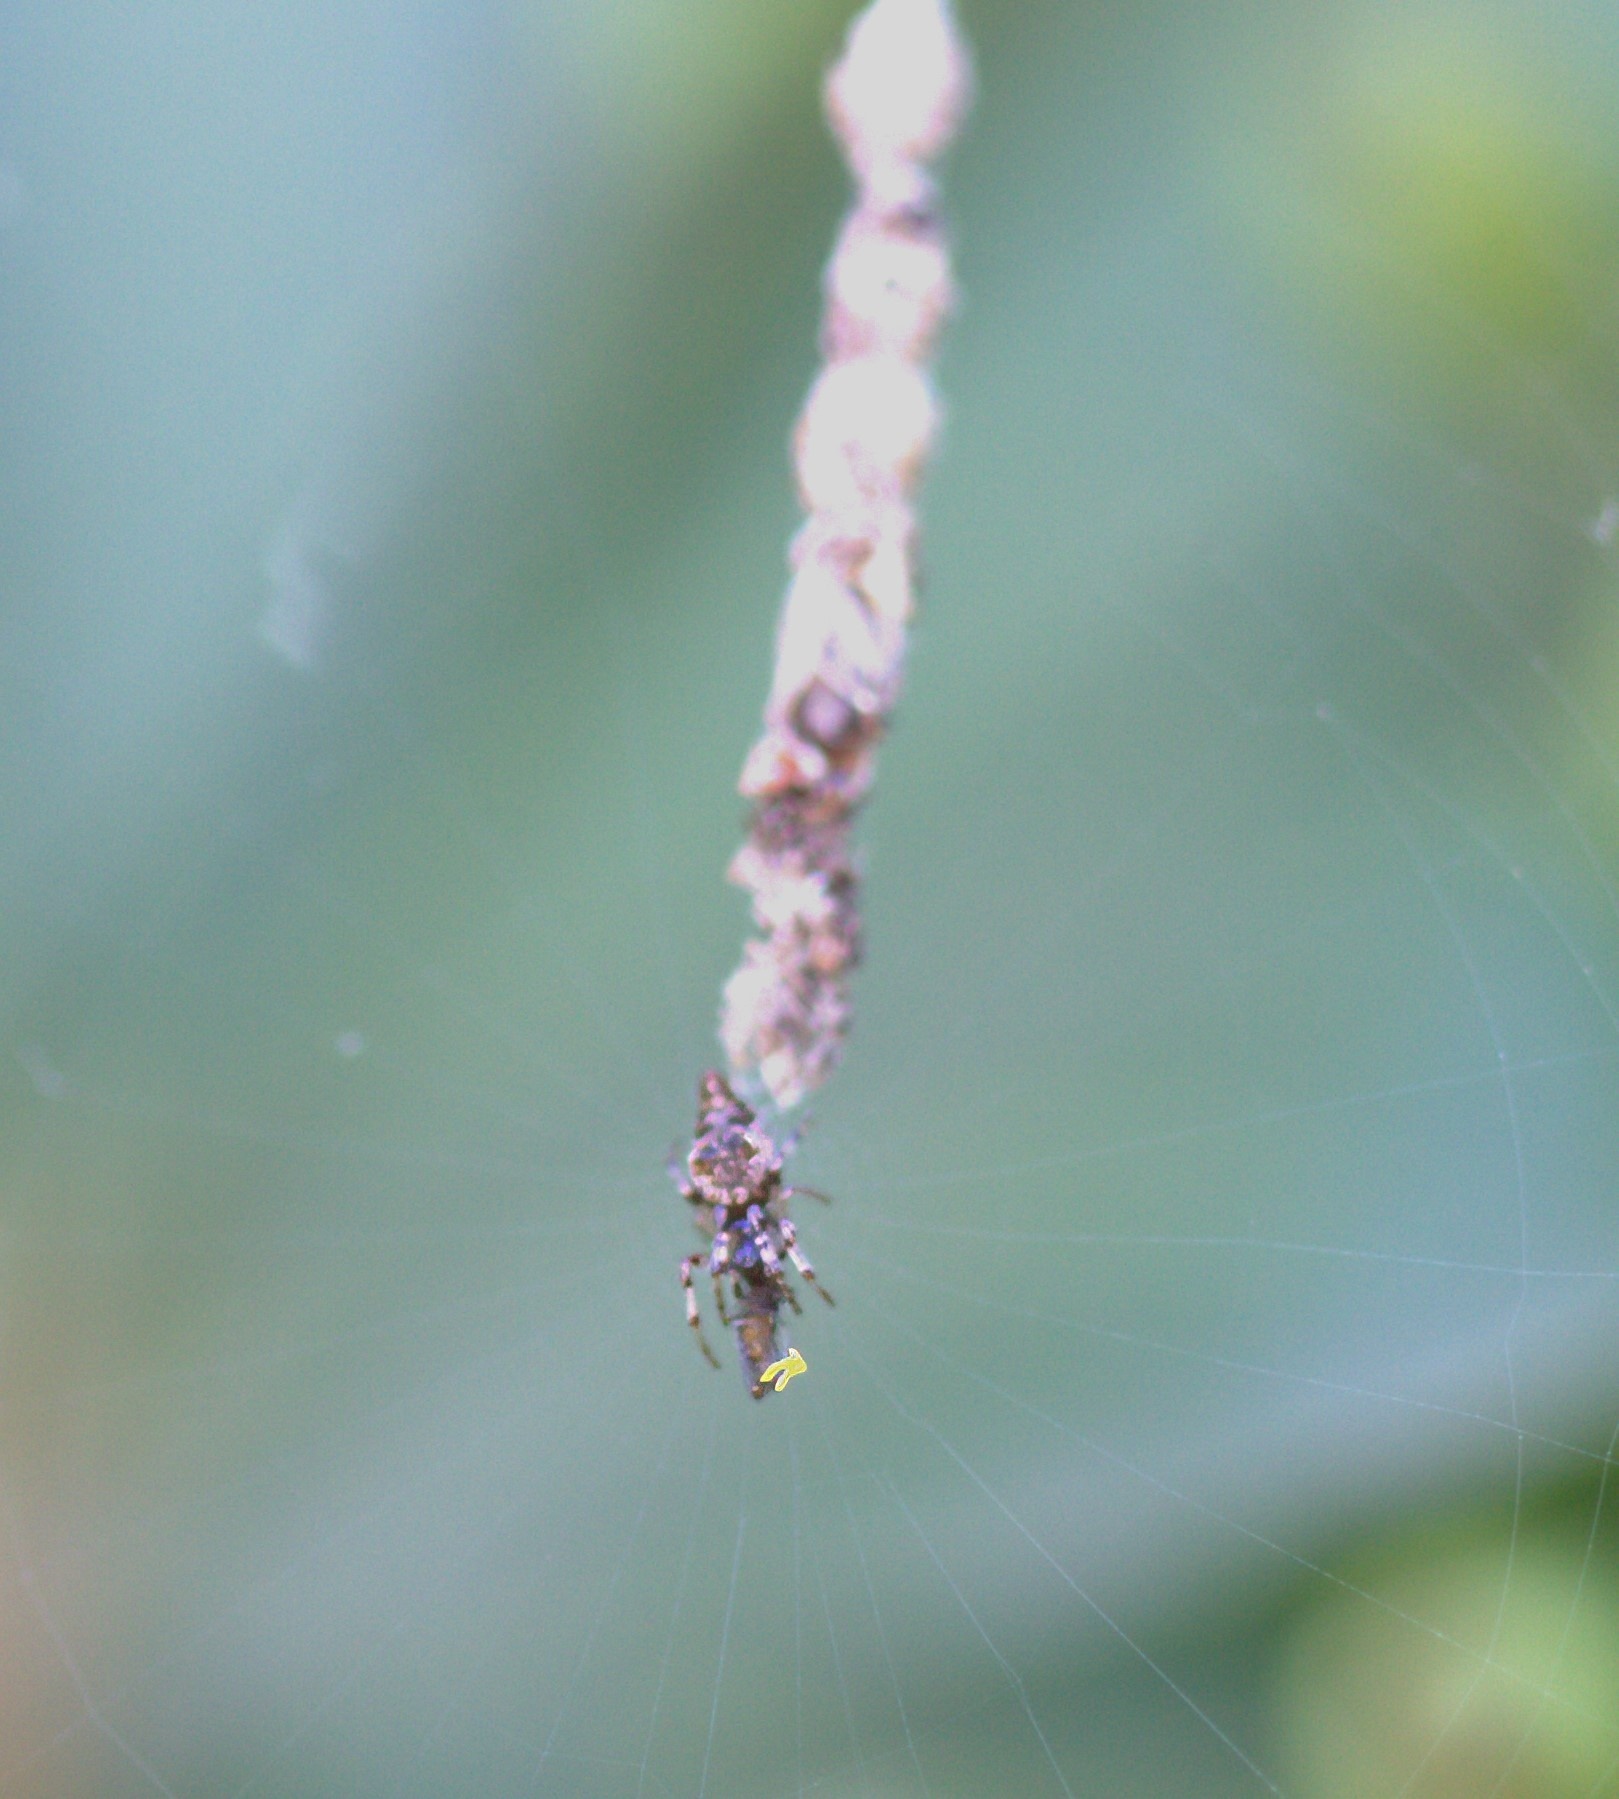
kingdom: Animalia
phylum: Arthropoda
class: Arachnida
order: Araneae
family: Araneidae
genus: Cyclosa
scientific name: Cyclosa turbinata
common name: Orb weavers
